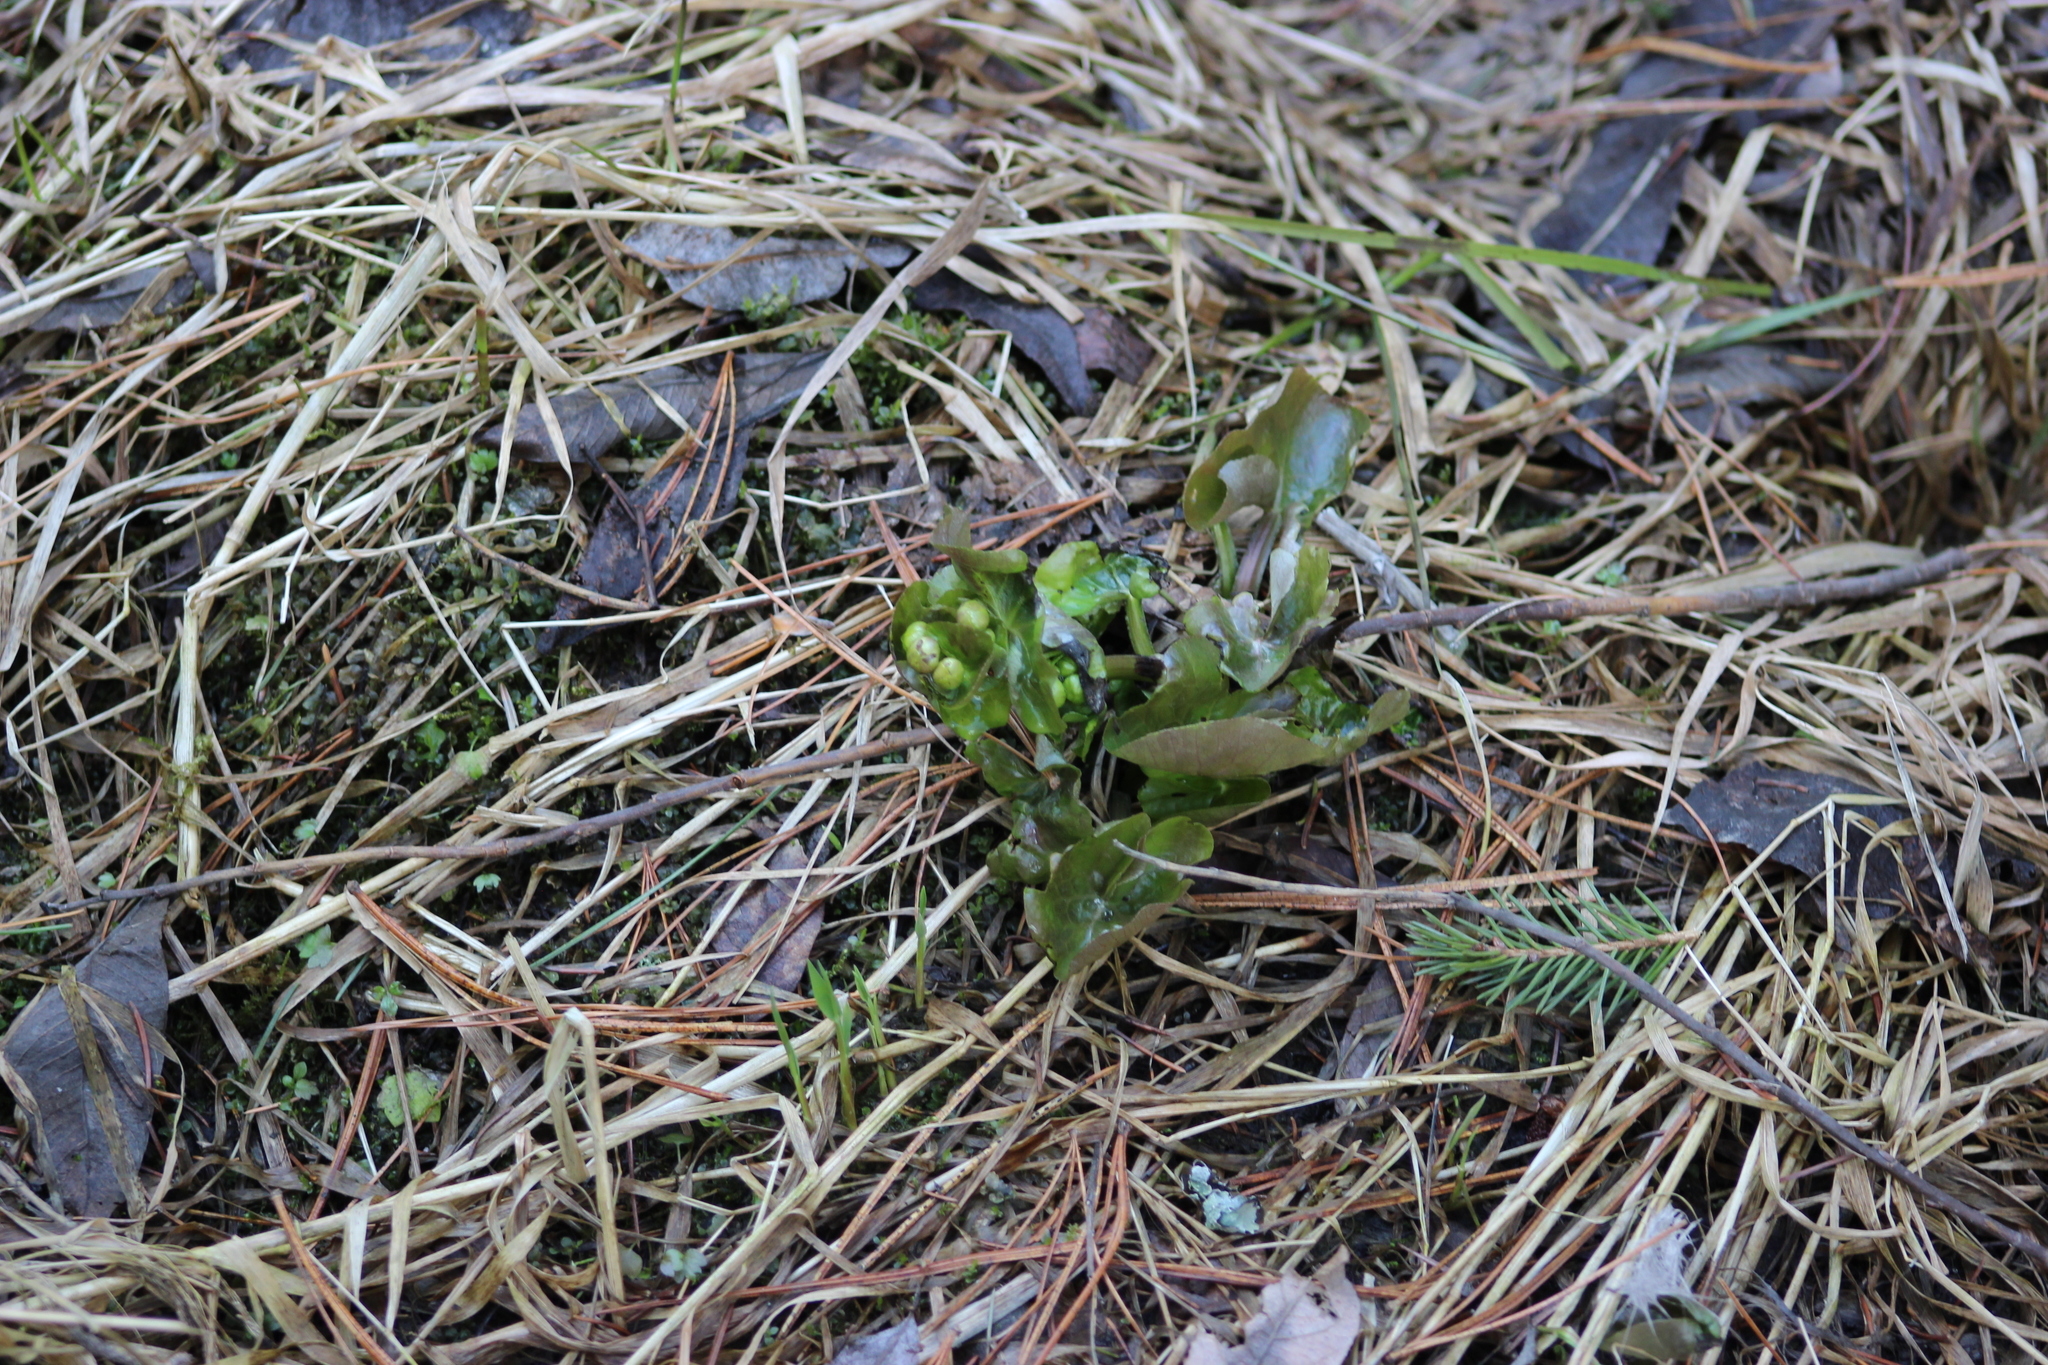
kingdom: Plantae
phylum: Tracheophyta
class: Magnoliopsida
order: Ranunculales
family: Ranunculaceae
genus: Caltha
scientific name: Caltha palustris
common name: Marsh marigold
